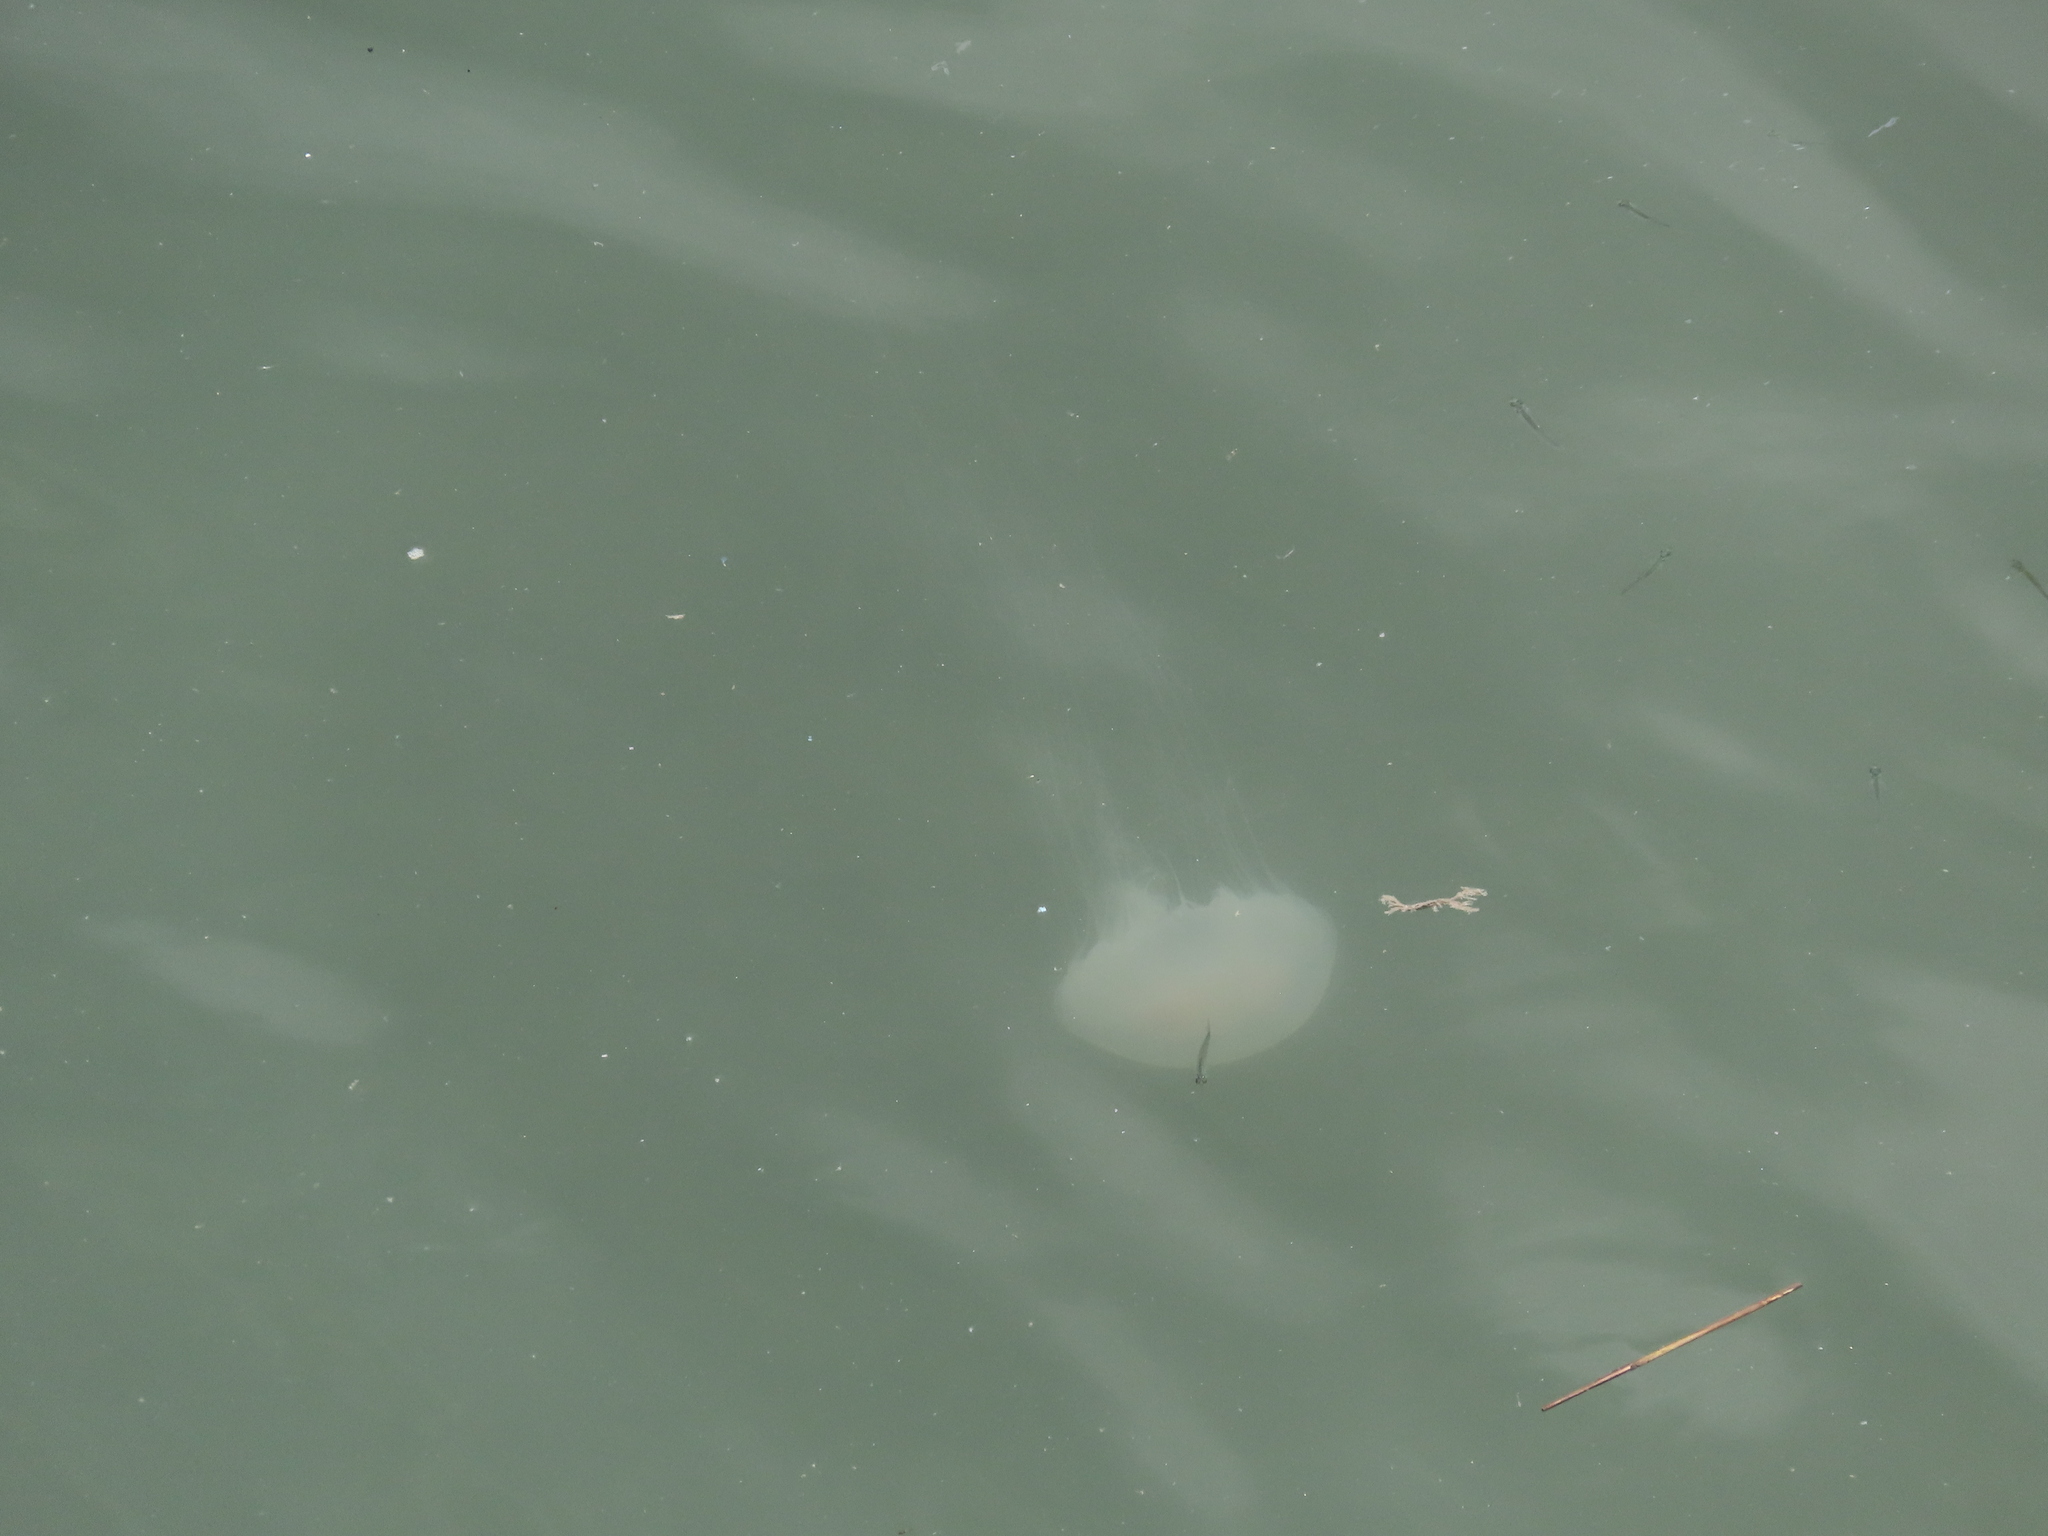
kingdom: Animalia
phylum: Cnidaria
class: Scyphozoa
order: Semaeostomeae
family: Pelagiidae
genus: Chrysaora
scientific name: Chrysaora quinquecirrha
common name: Atlantic sea nettle
